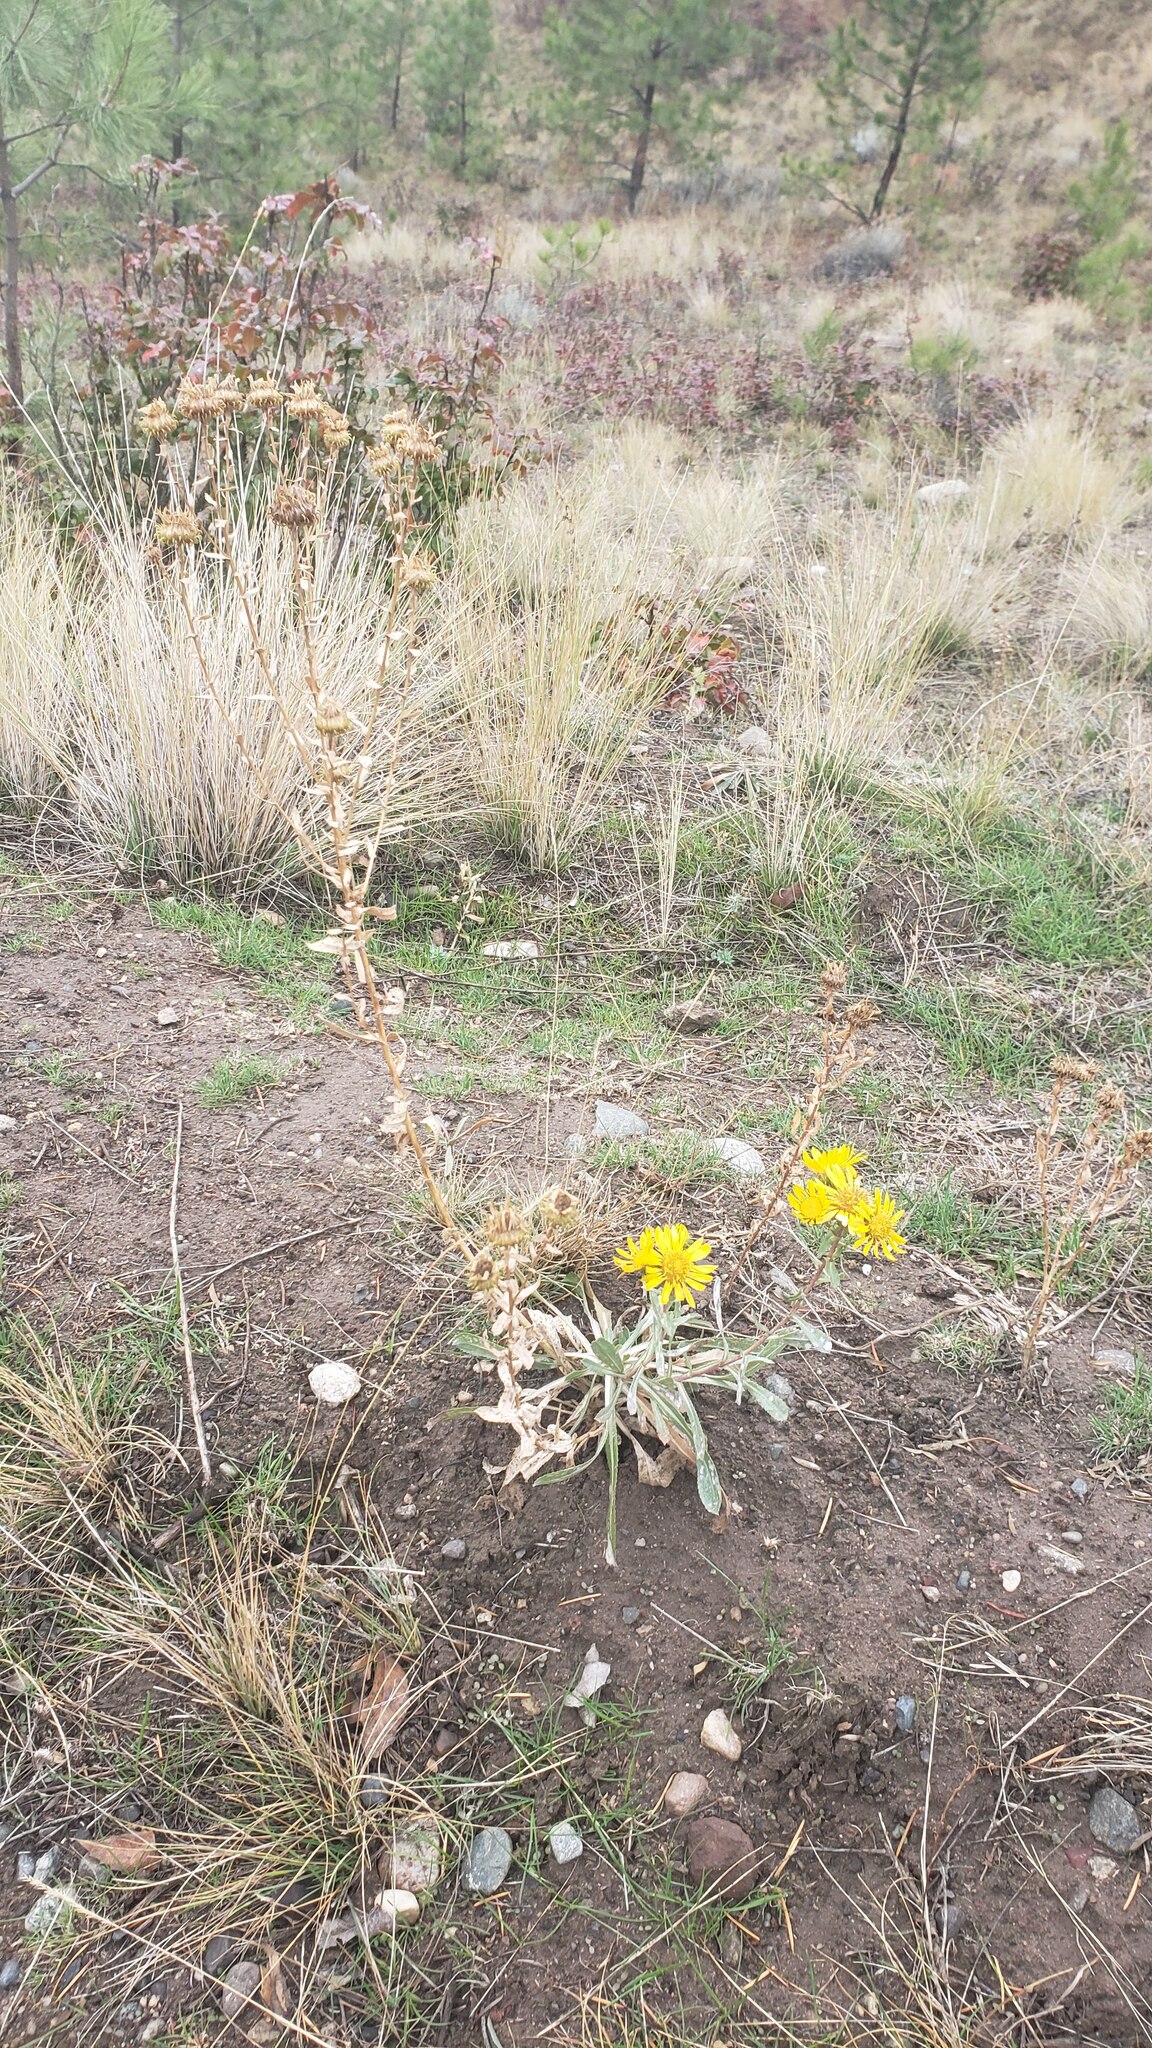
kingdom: Plantae
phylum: Tracheophyta
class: Magnoliopsida
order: Asterales
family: Asteraceae
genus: Grindelia
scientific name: Grindelia squarrosa
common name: Curly-cup gumweed
